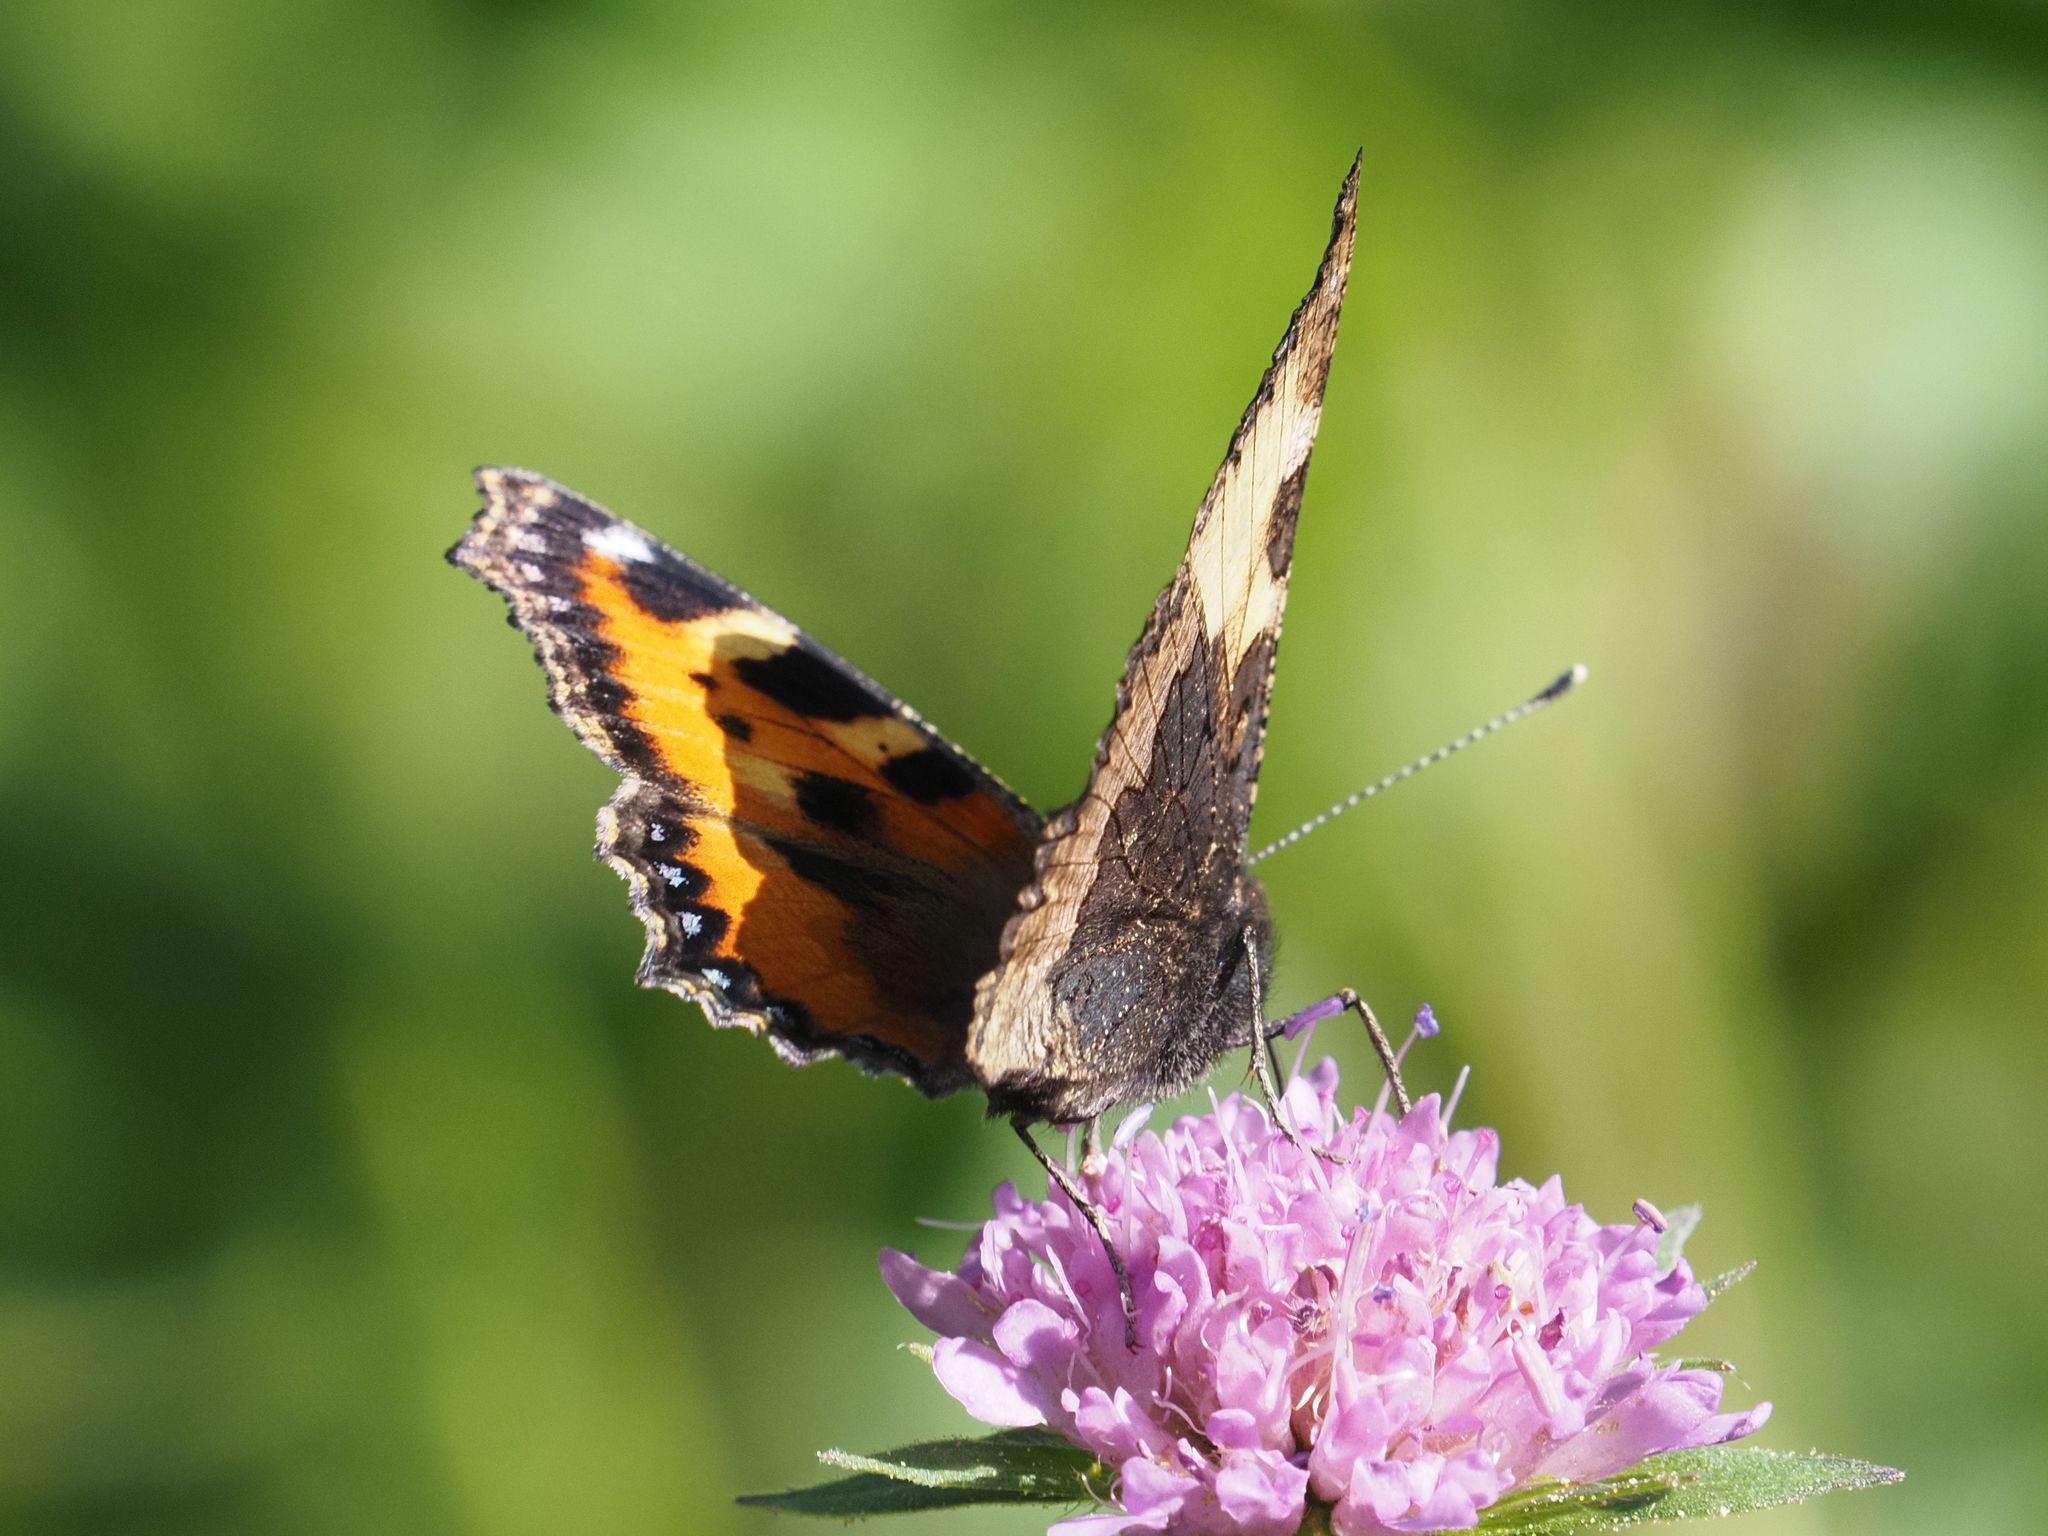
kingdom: Animalia
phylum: Arthropoda
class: Insecta
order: Lepidoptera
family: Nymphalidae
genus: Aglais
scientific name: Aglais urticae
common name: Small tortoiseshell
